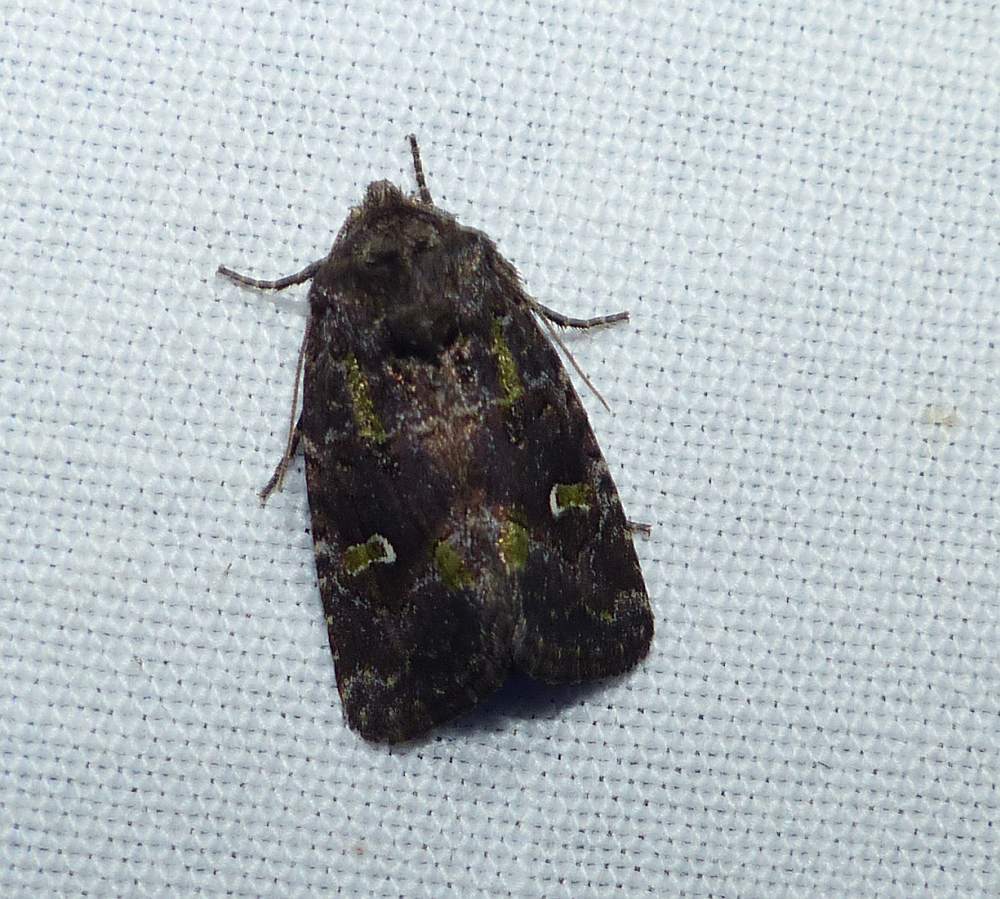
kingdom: Animalia
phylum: Arthropoda
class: Insecta
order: Lepidoptera
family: Noctuidae
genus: Lacinipolia
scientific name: Lacinipolia renigera
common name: Kidney-spotted minor
